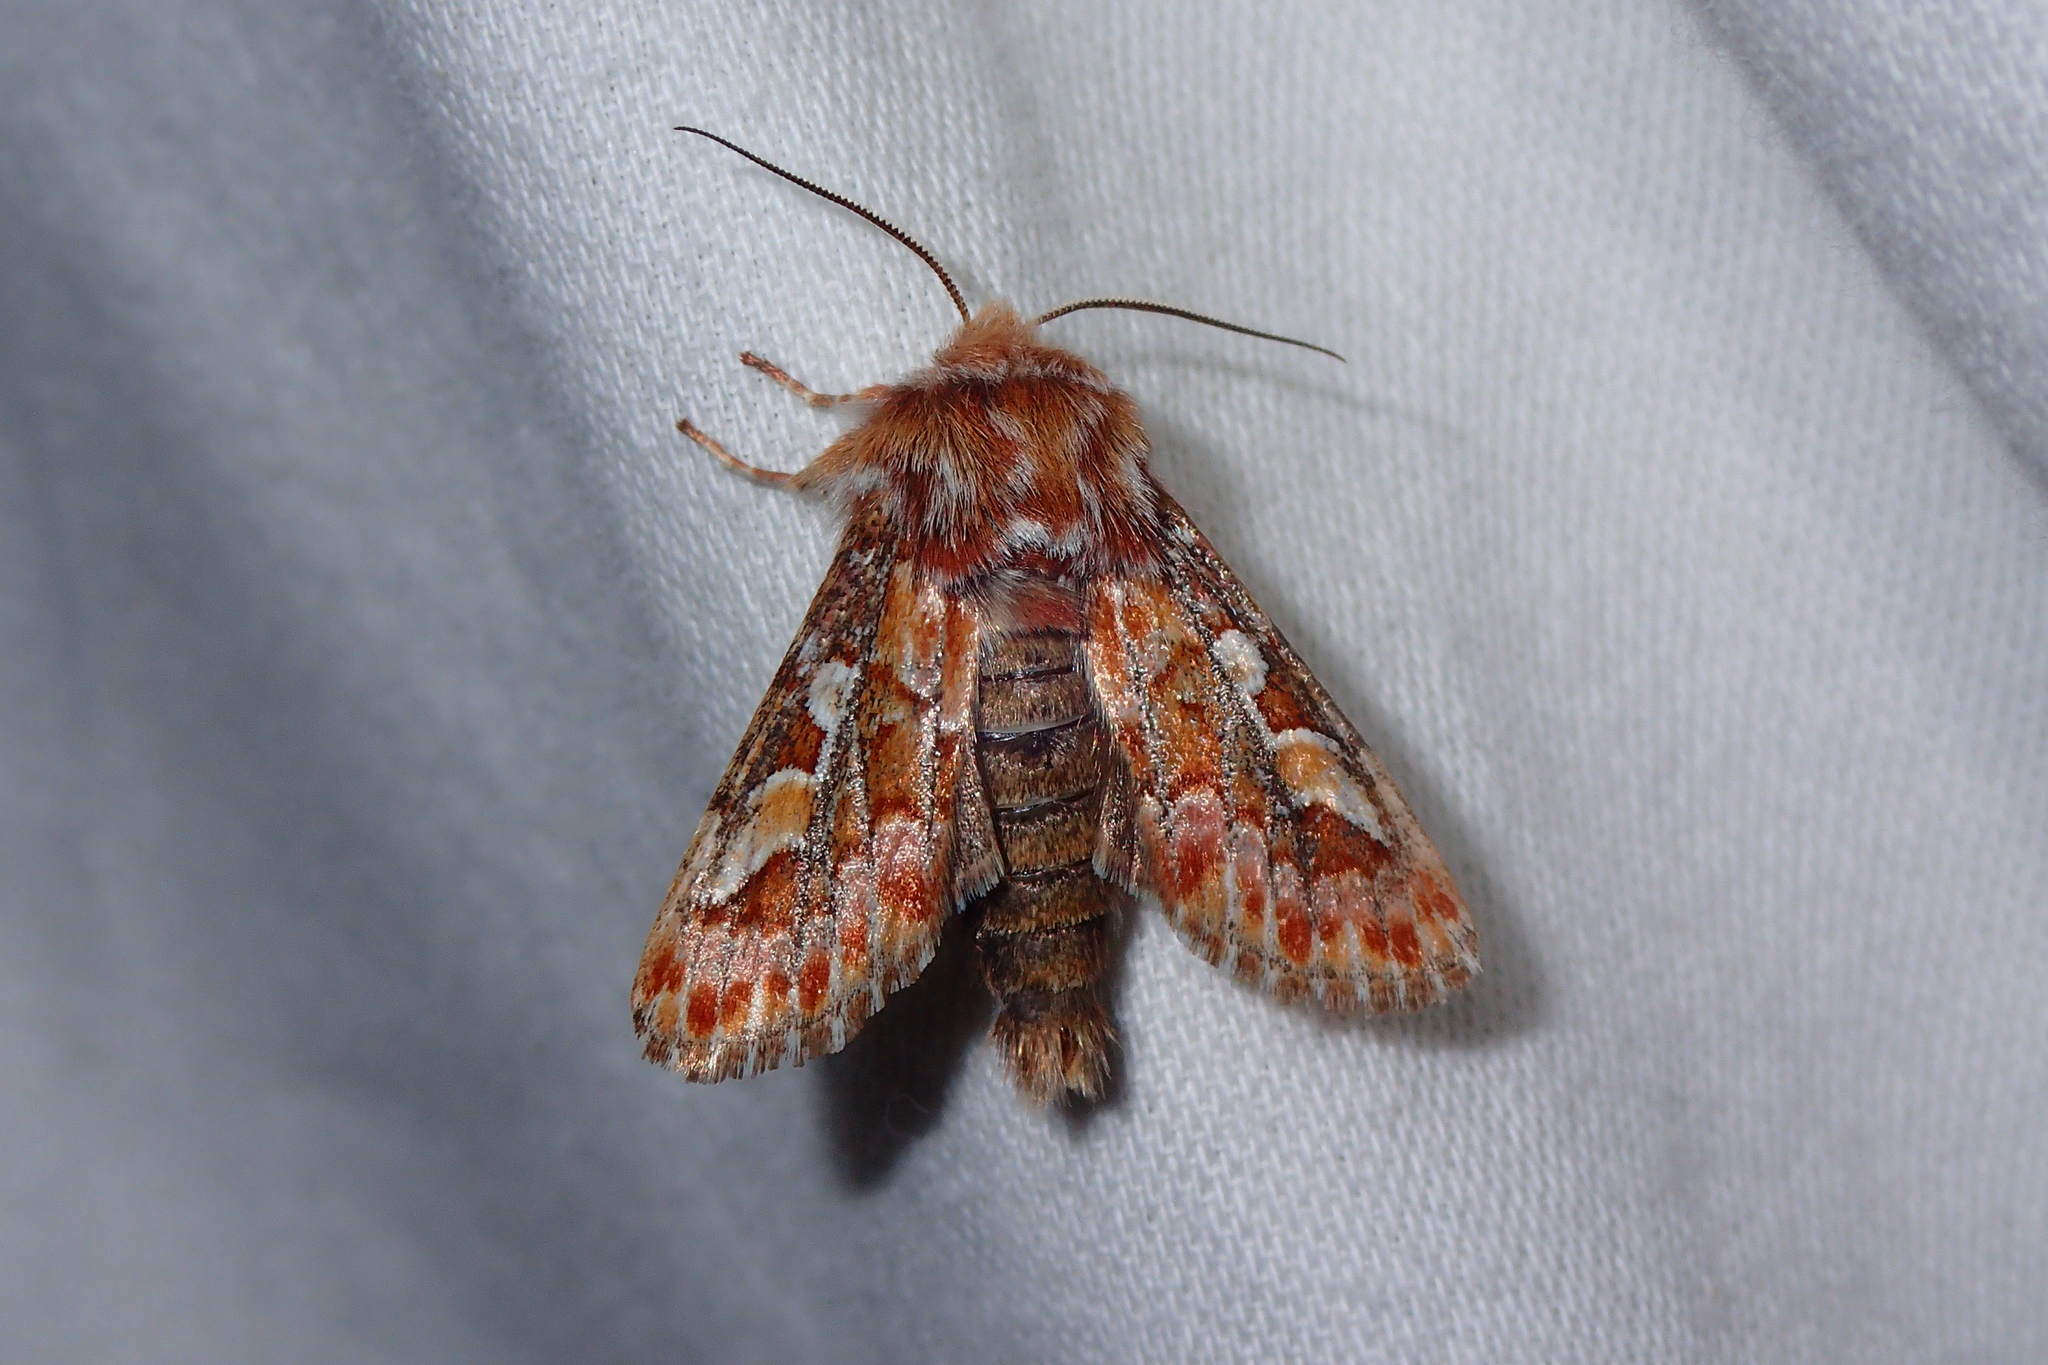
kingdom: Animalia
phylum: Arthropoda
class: Insecta
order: Lepidoptera
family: Noctuidae
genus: Panolis
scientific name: Panolis flammea
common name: Pine beauty
